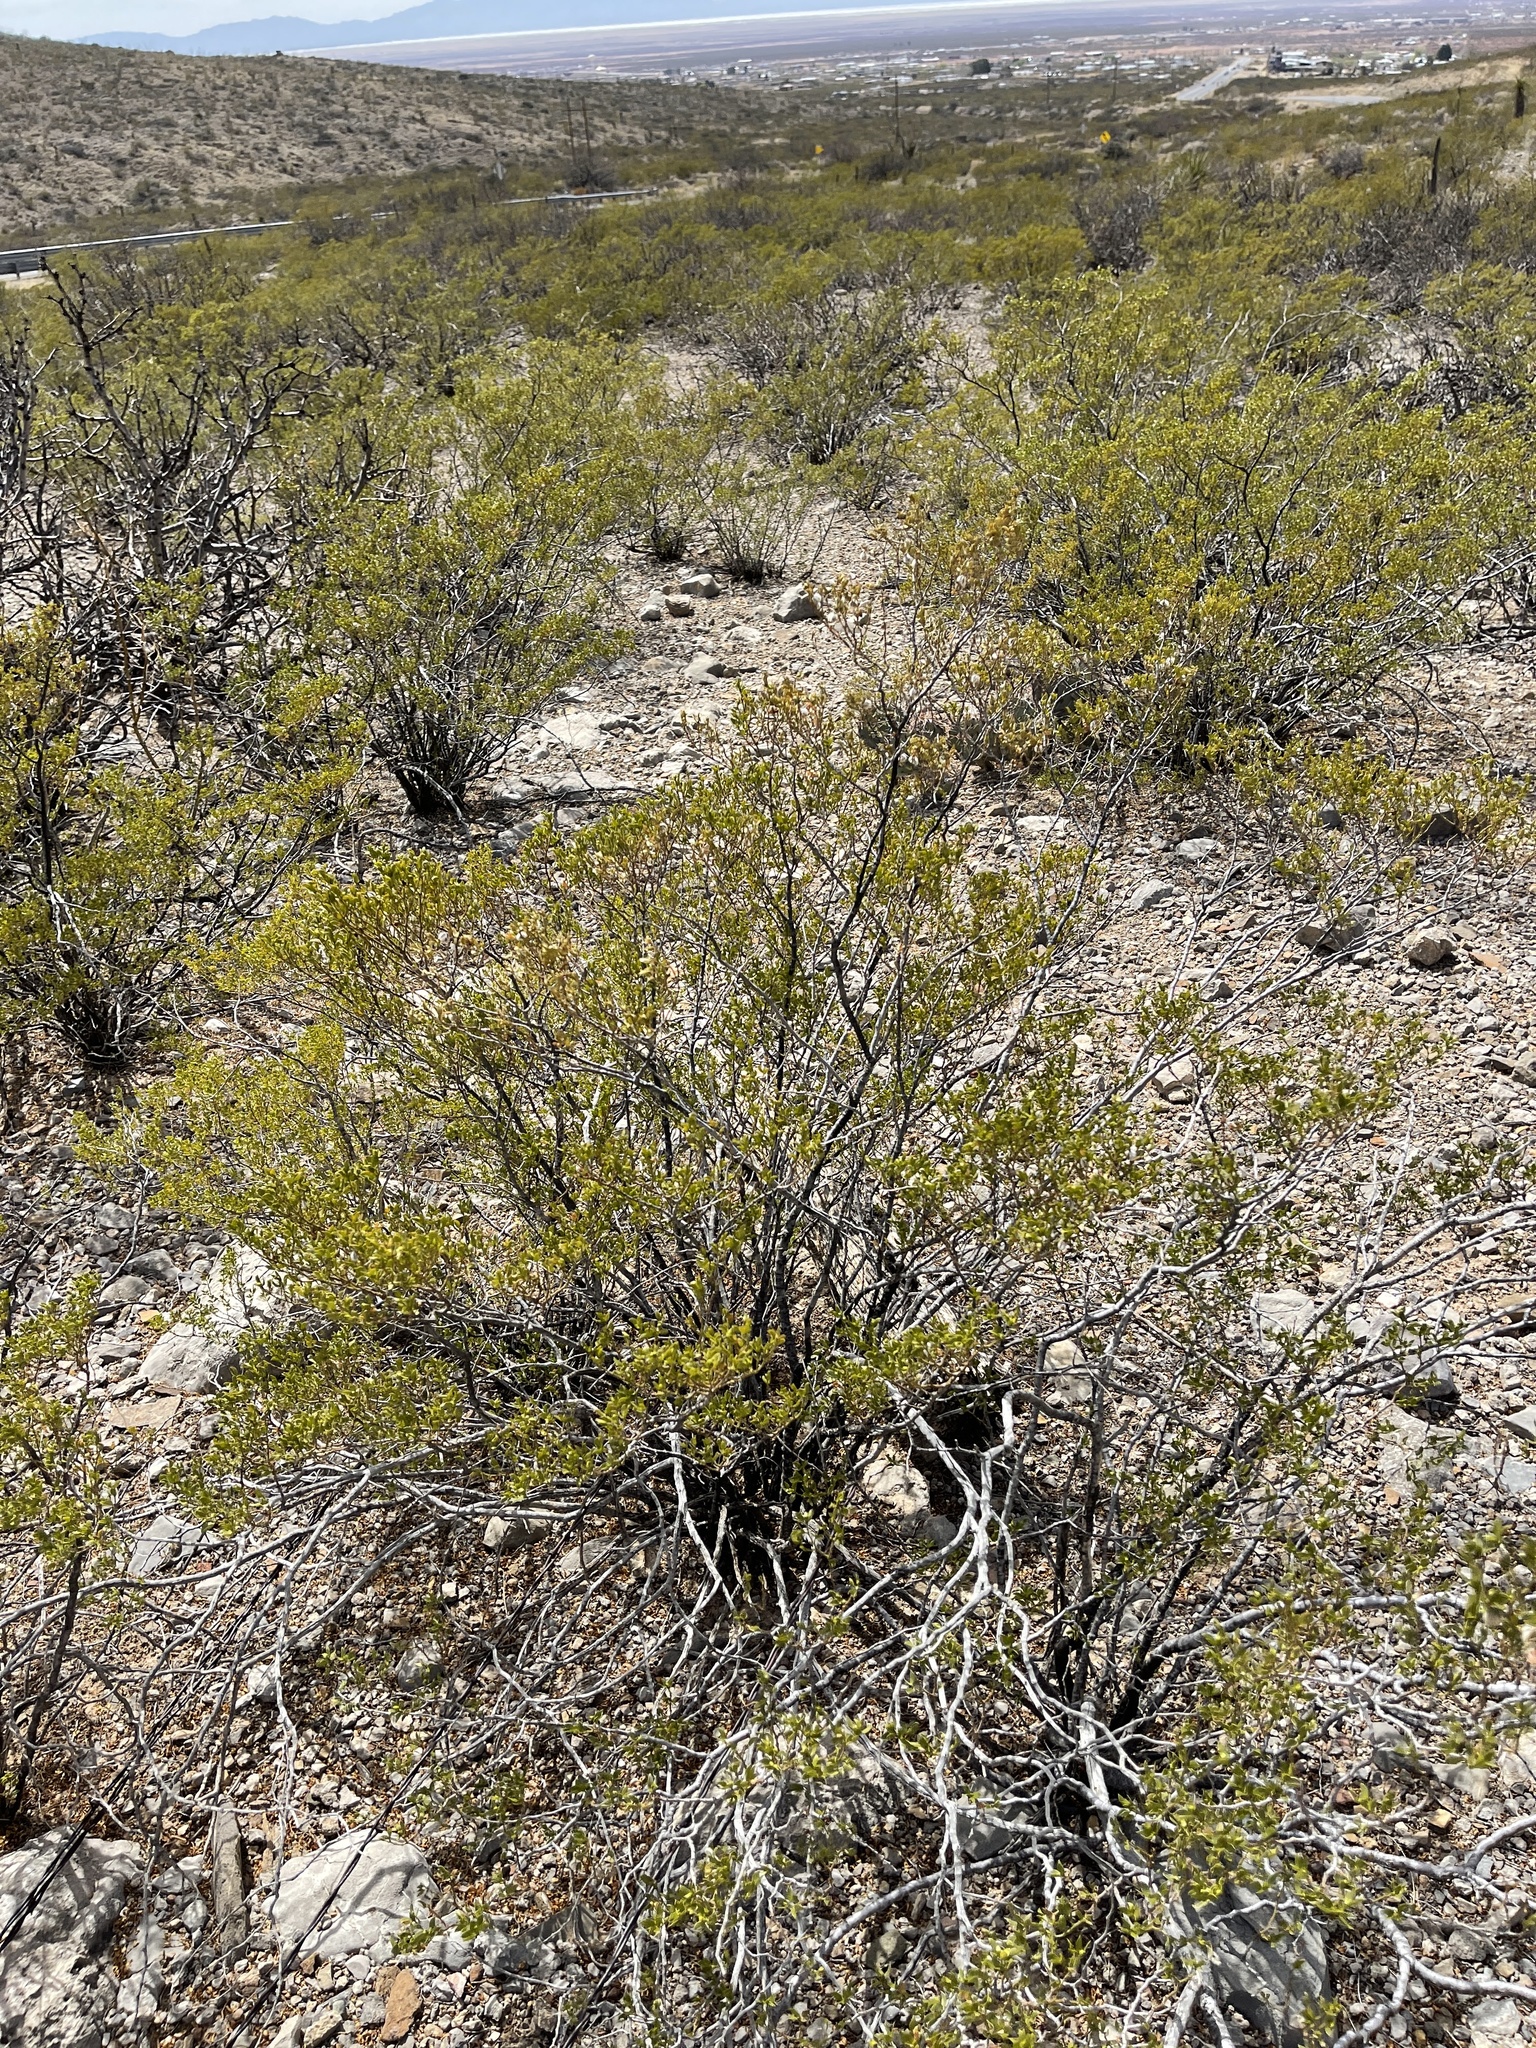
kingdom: Plantae
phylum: Tracheophyta
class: Magnoliopsida
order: Zygophyllales
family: Zygophyllaceae
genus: Larrea
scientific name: Larrea tridentata
